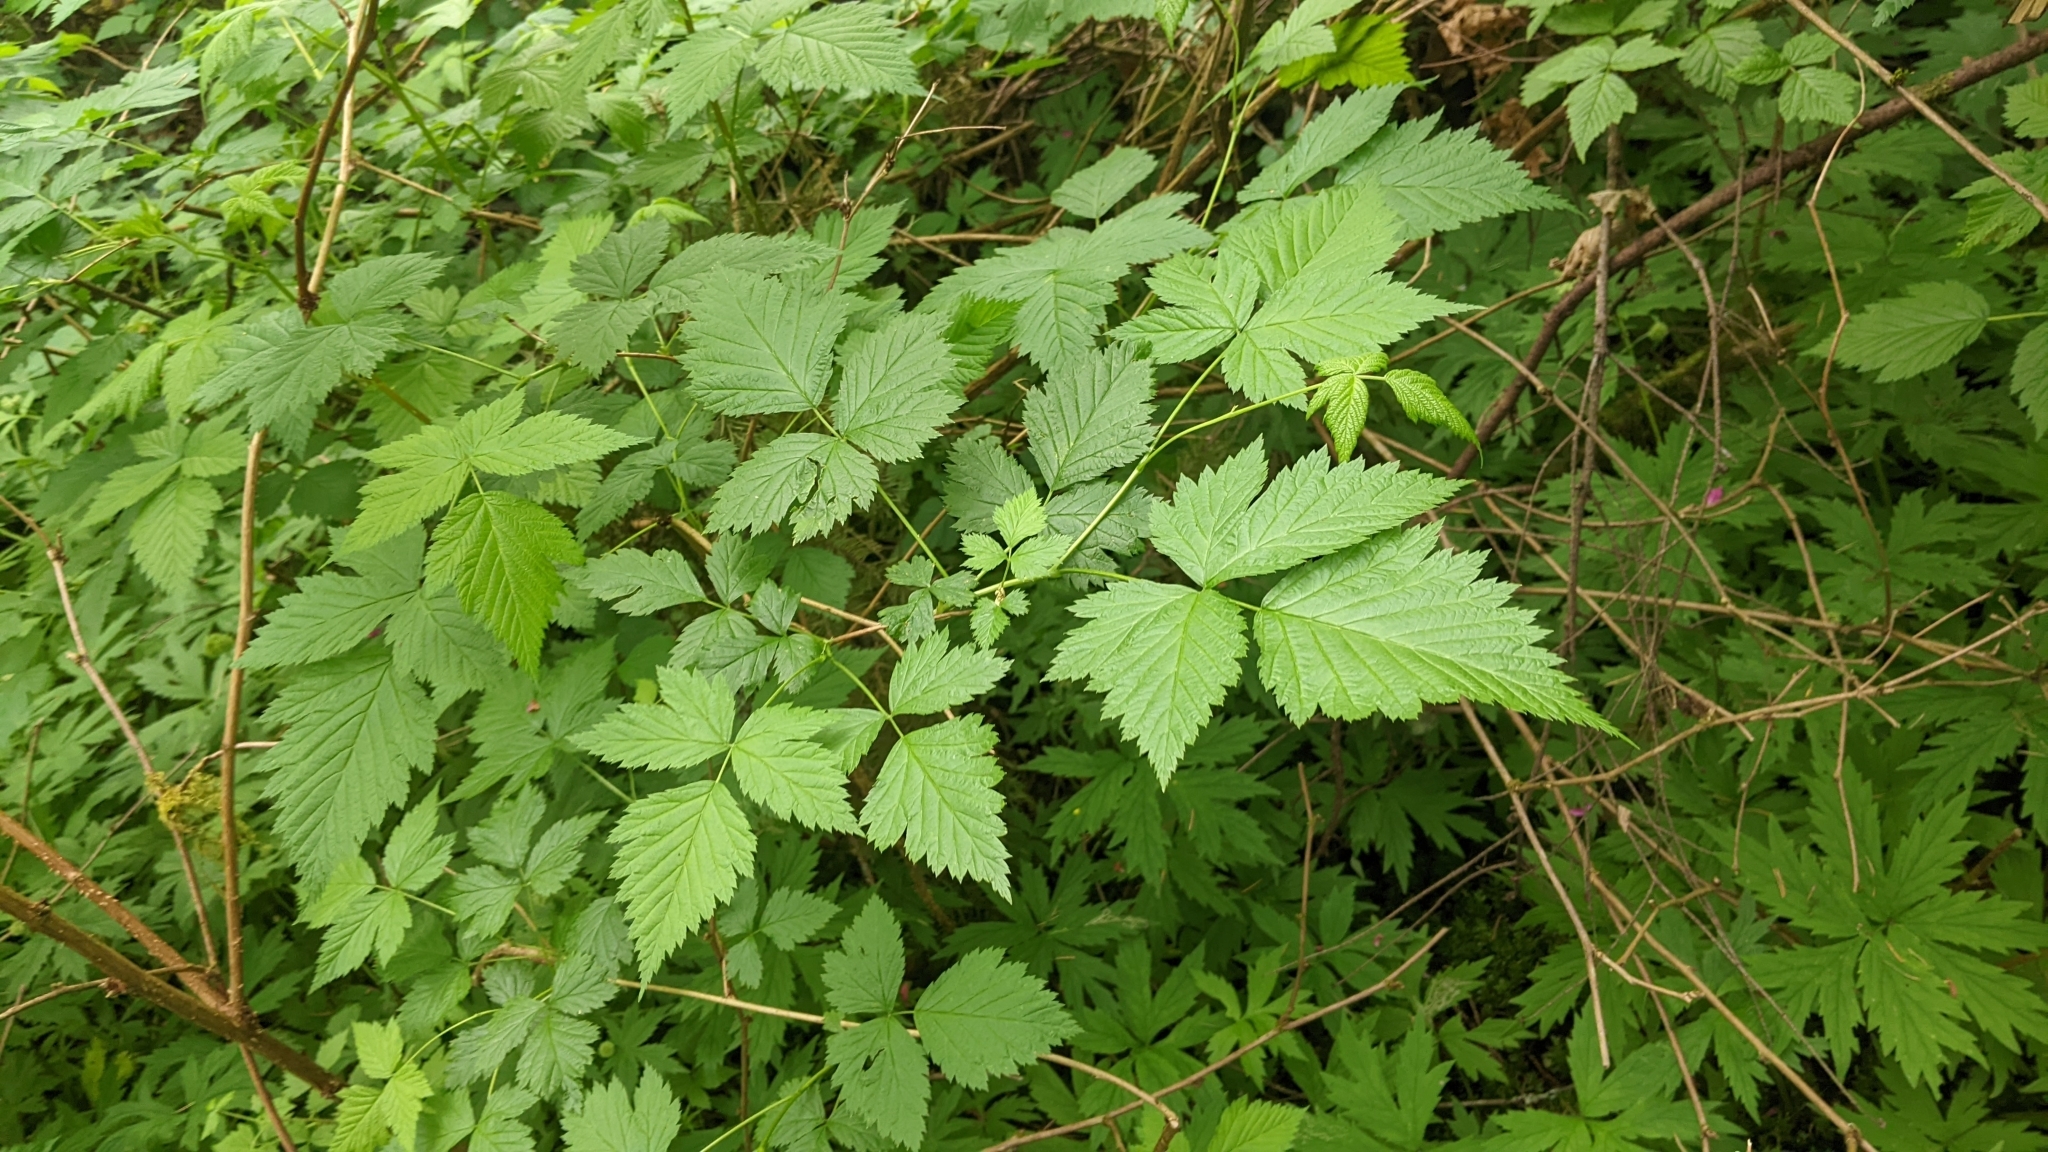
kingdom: Plantae
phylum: Tracheophyta
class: Magnoliopsida
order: Rosales
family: Rosaceae
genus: Rubus
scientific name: Rubus spectabilis
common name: Salmonberry
